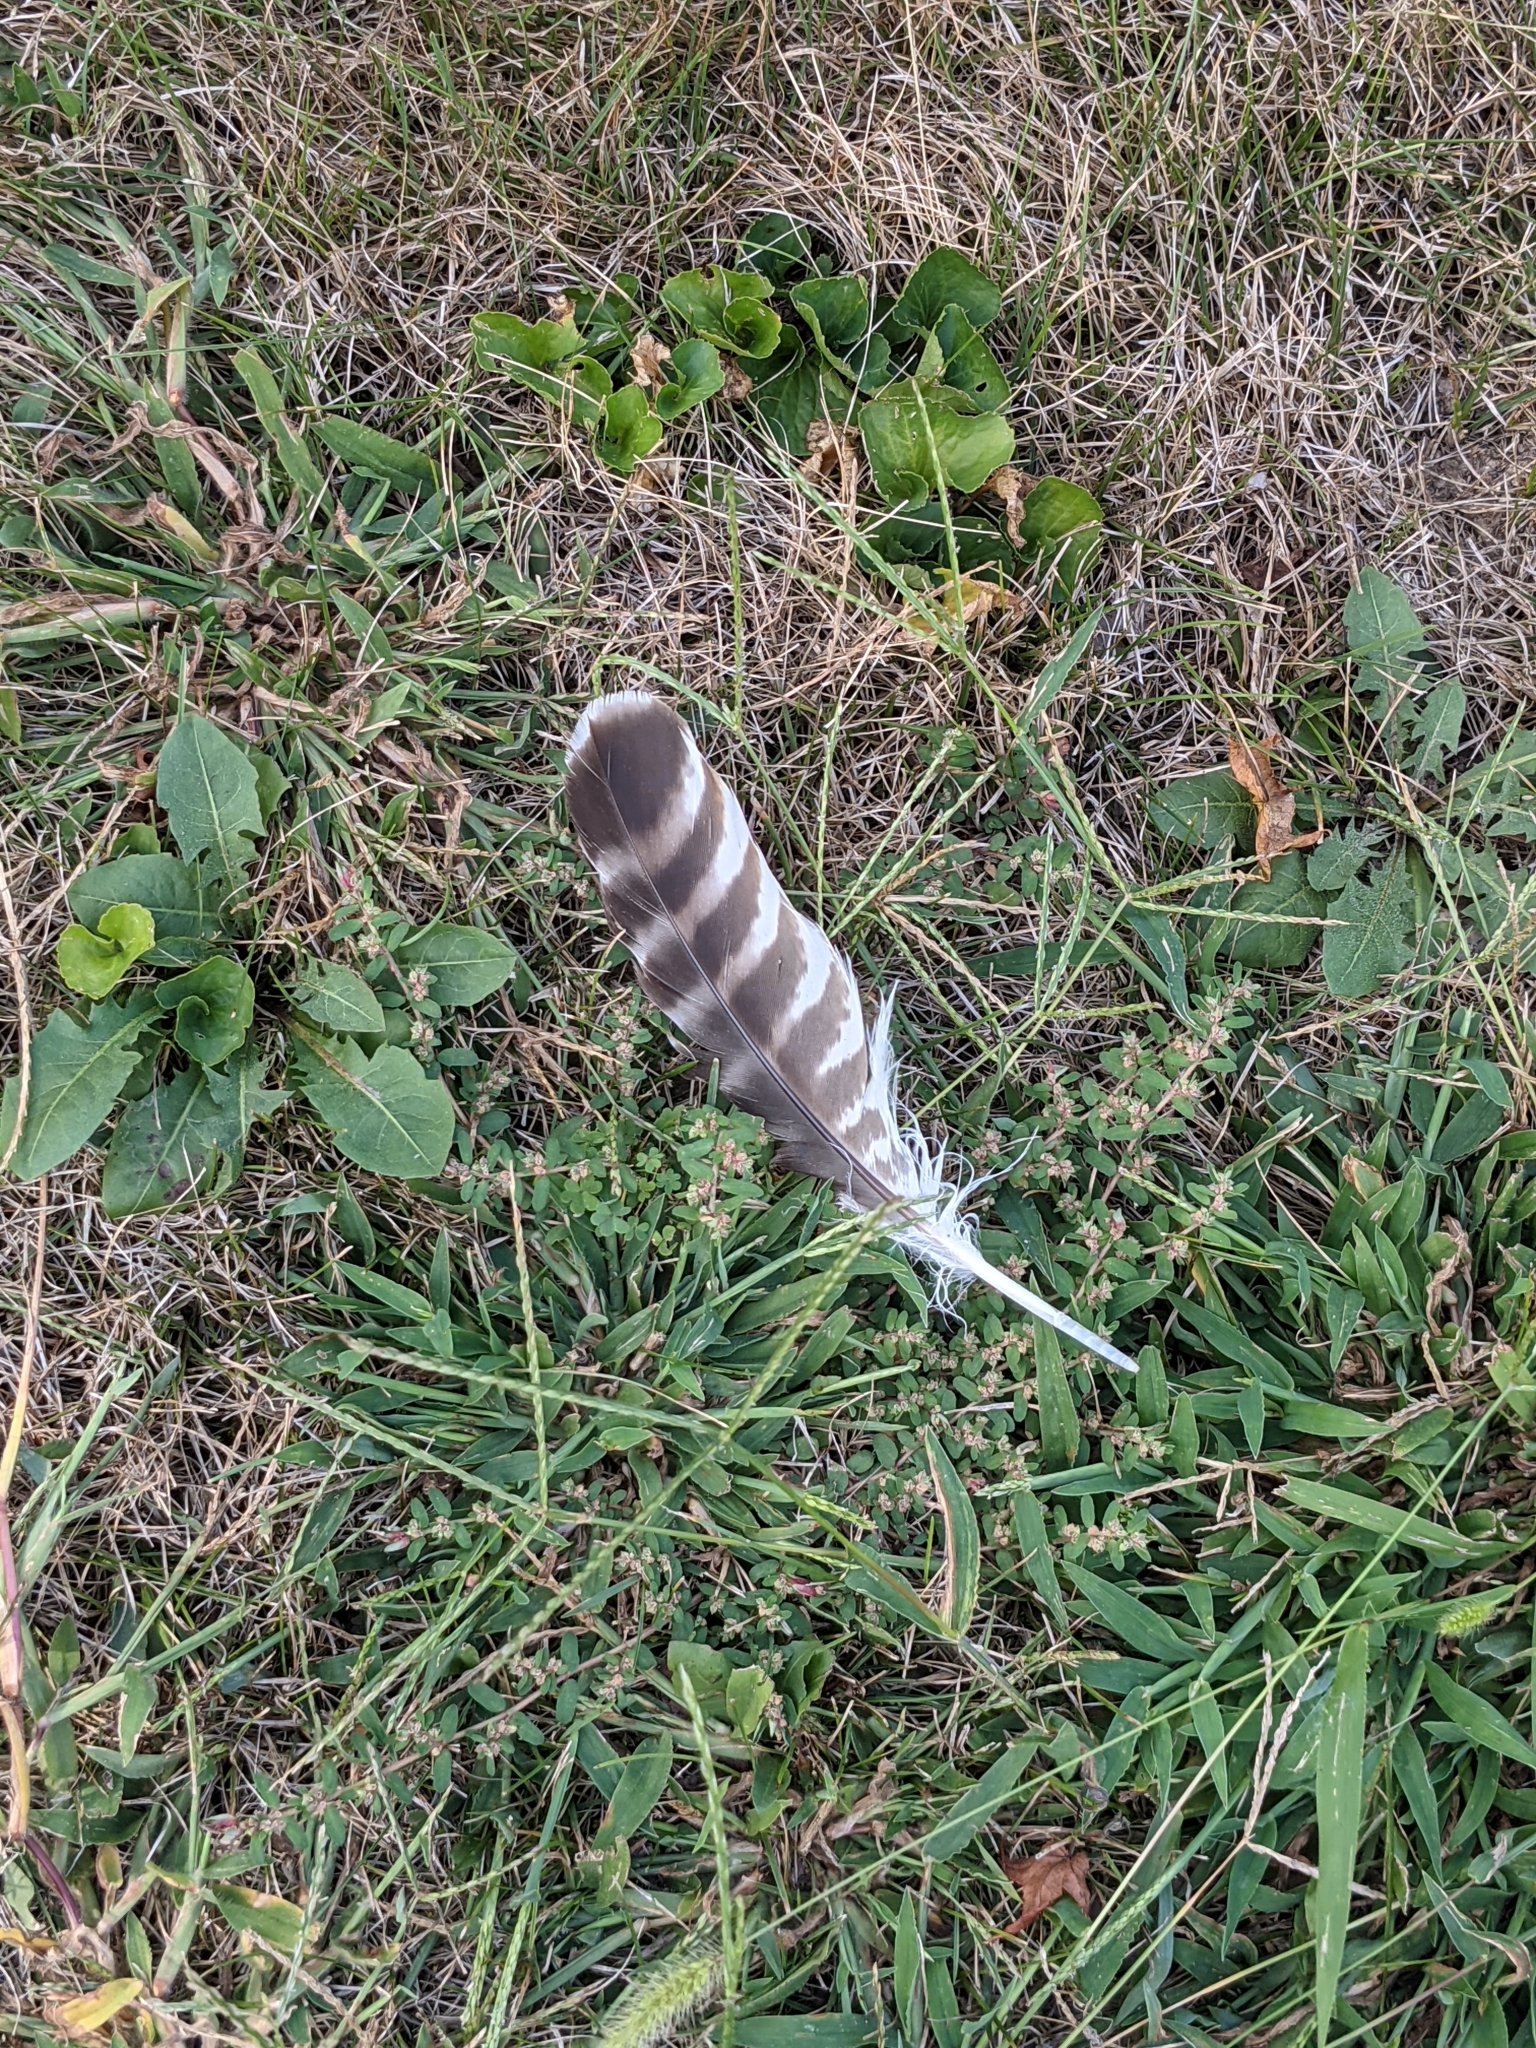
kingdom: Animalia
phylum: Chordata
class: Aves
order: Accipitriformes
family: Accipitridae
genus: Buteo
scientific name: Buteo lineatus
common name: Red-shouldered hawk
